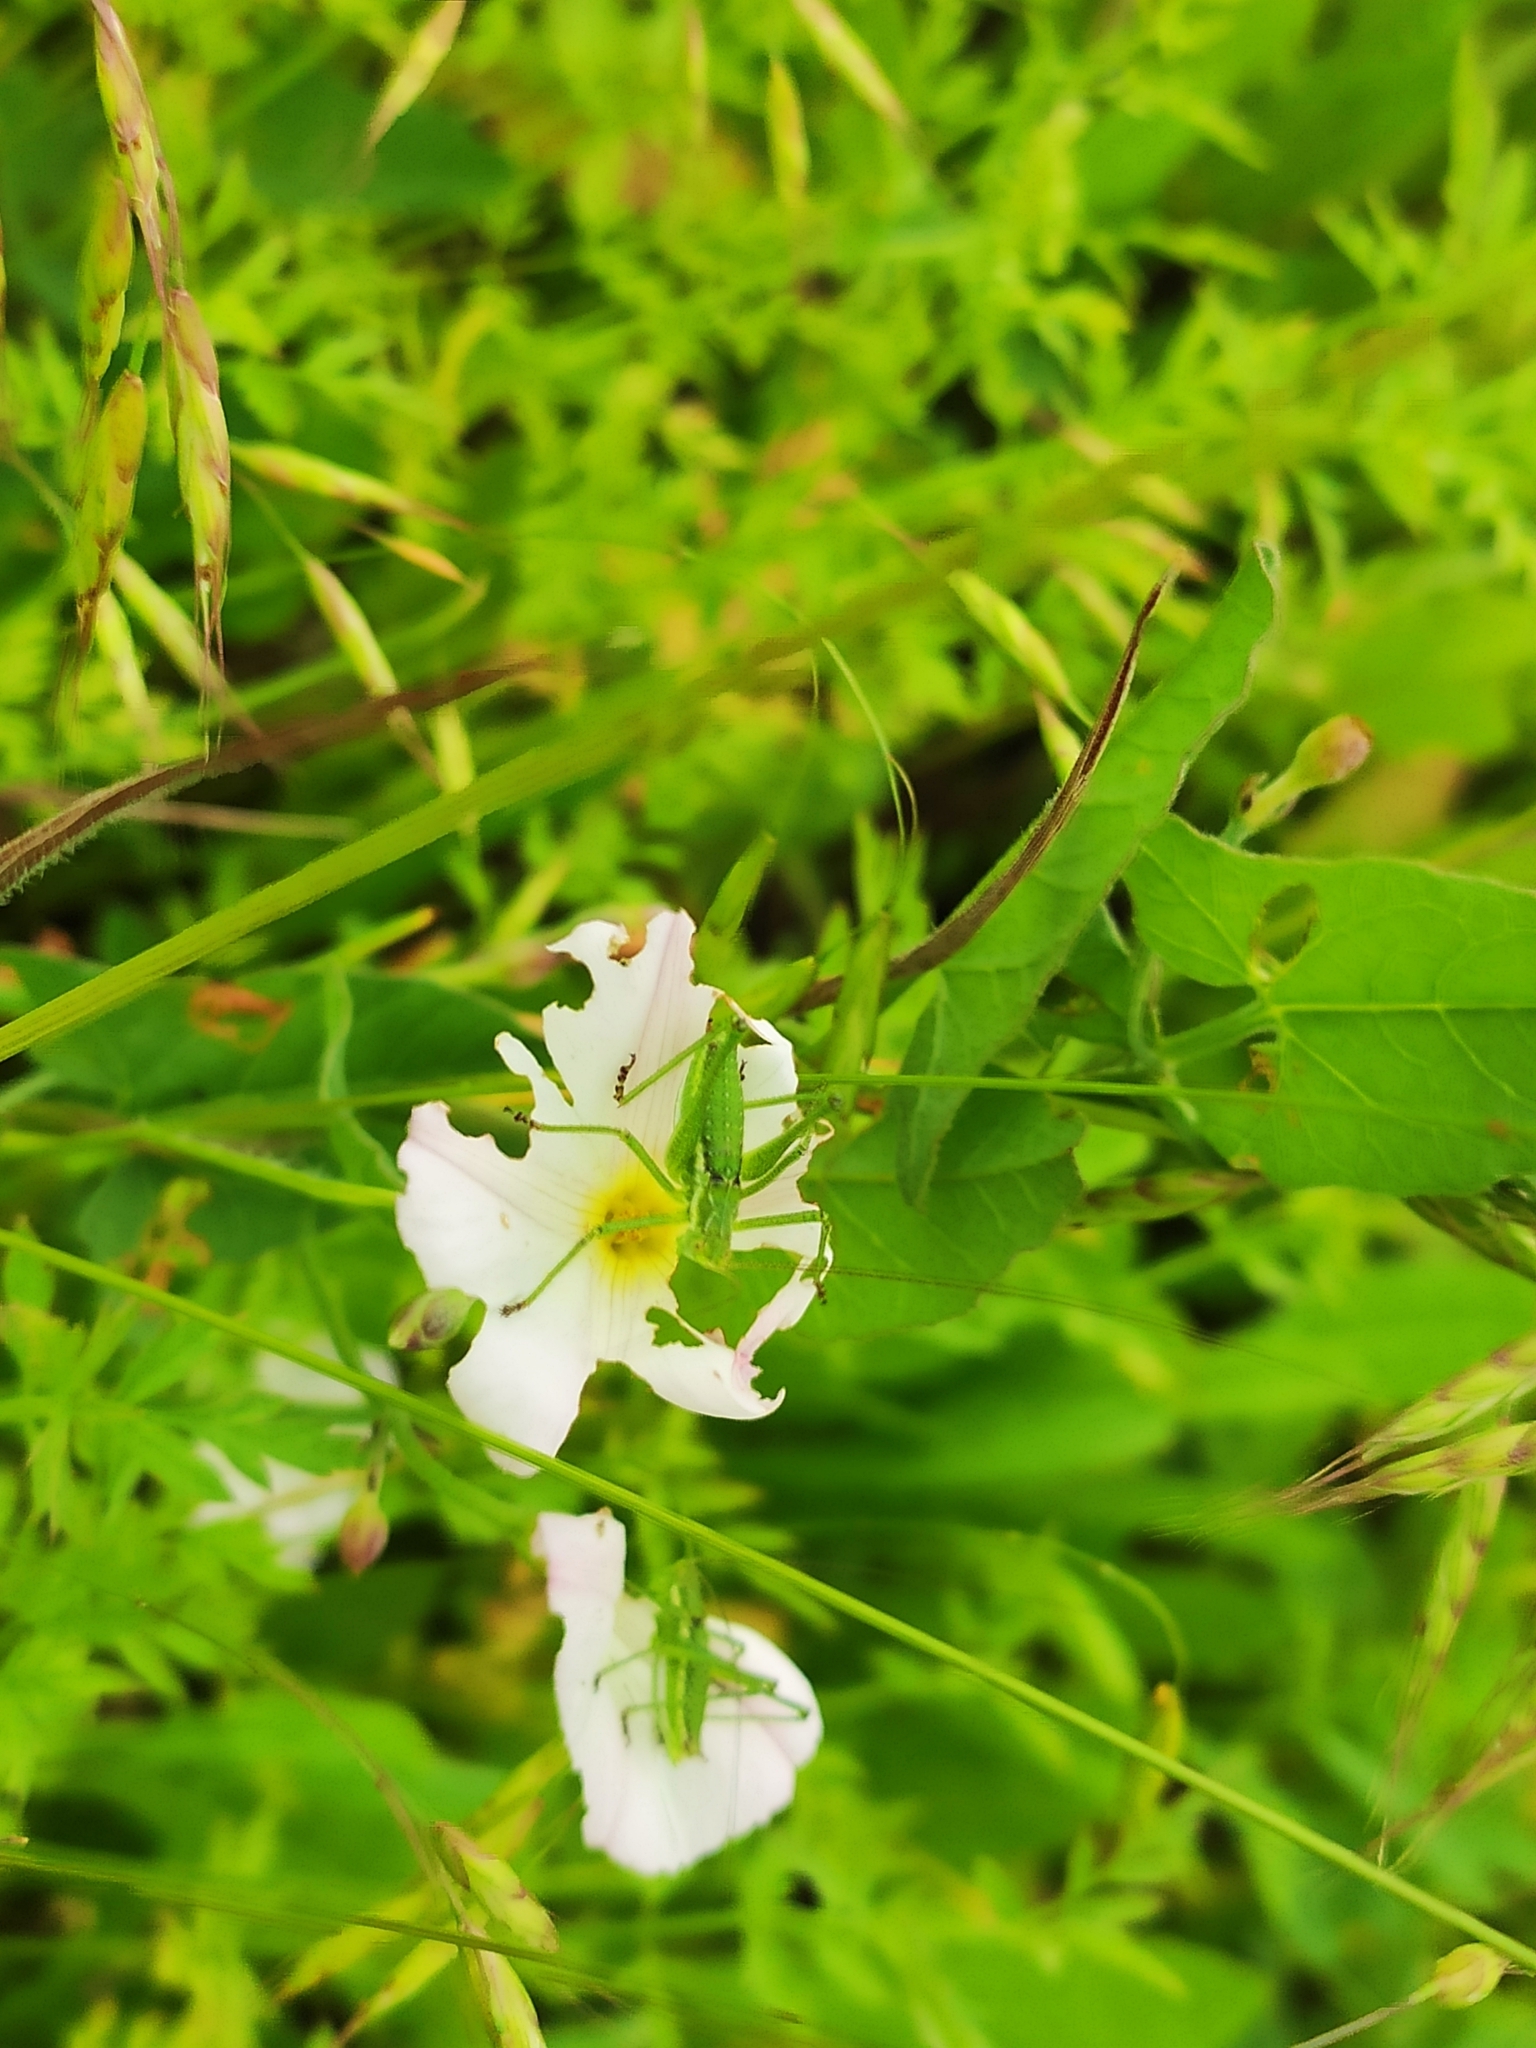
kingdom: Animalia
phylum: Arthropoda
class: Insecta
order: Orthoptera
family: Tettigoniidae
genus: Leptophyes
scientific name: Leptophyes albovittata
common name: Striped bush-cricket
